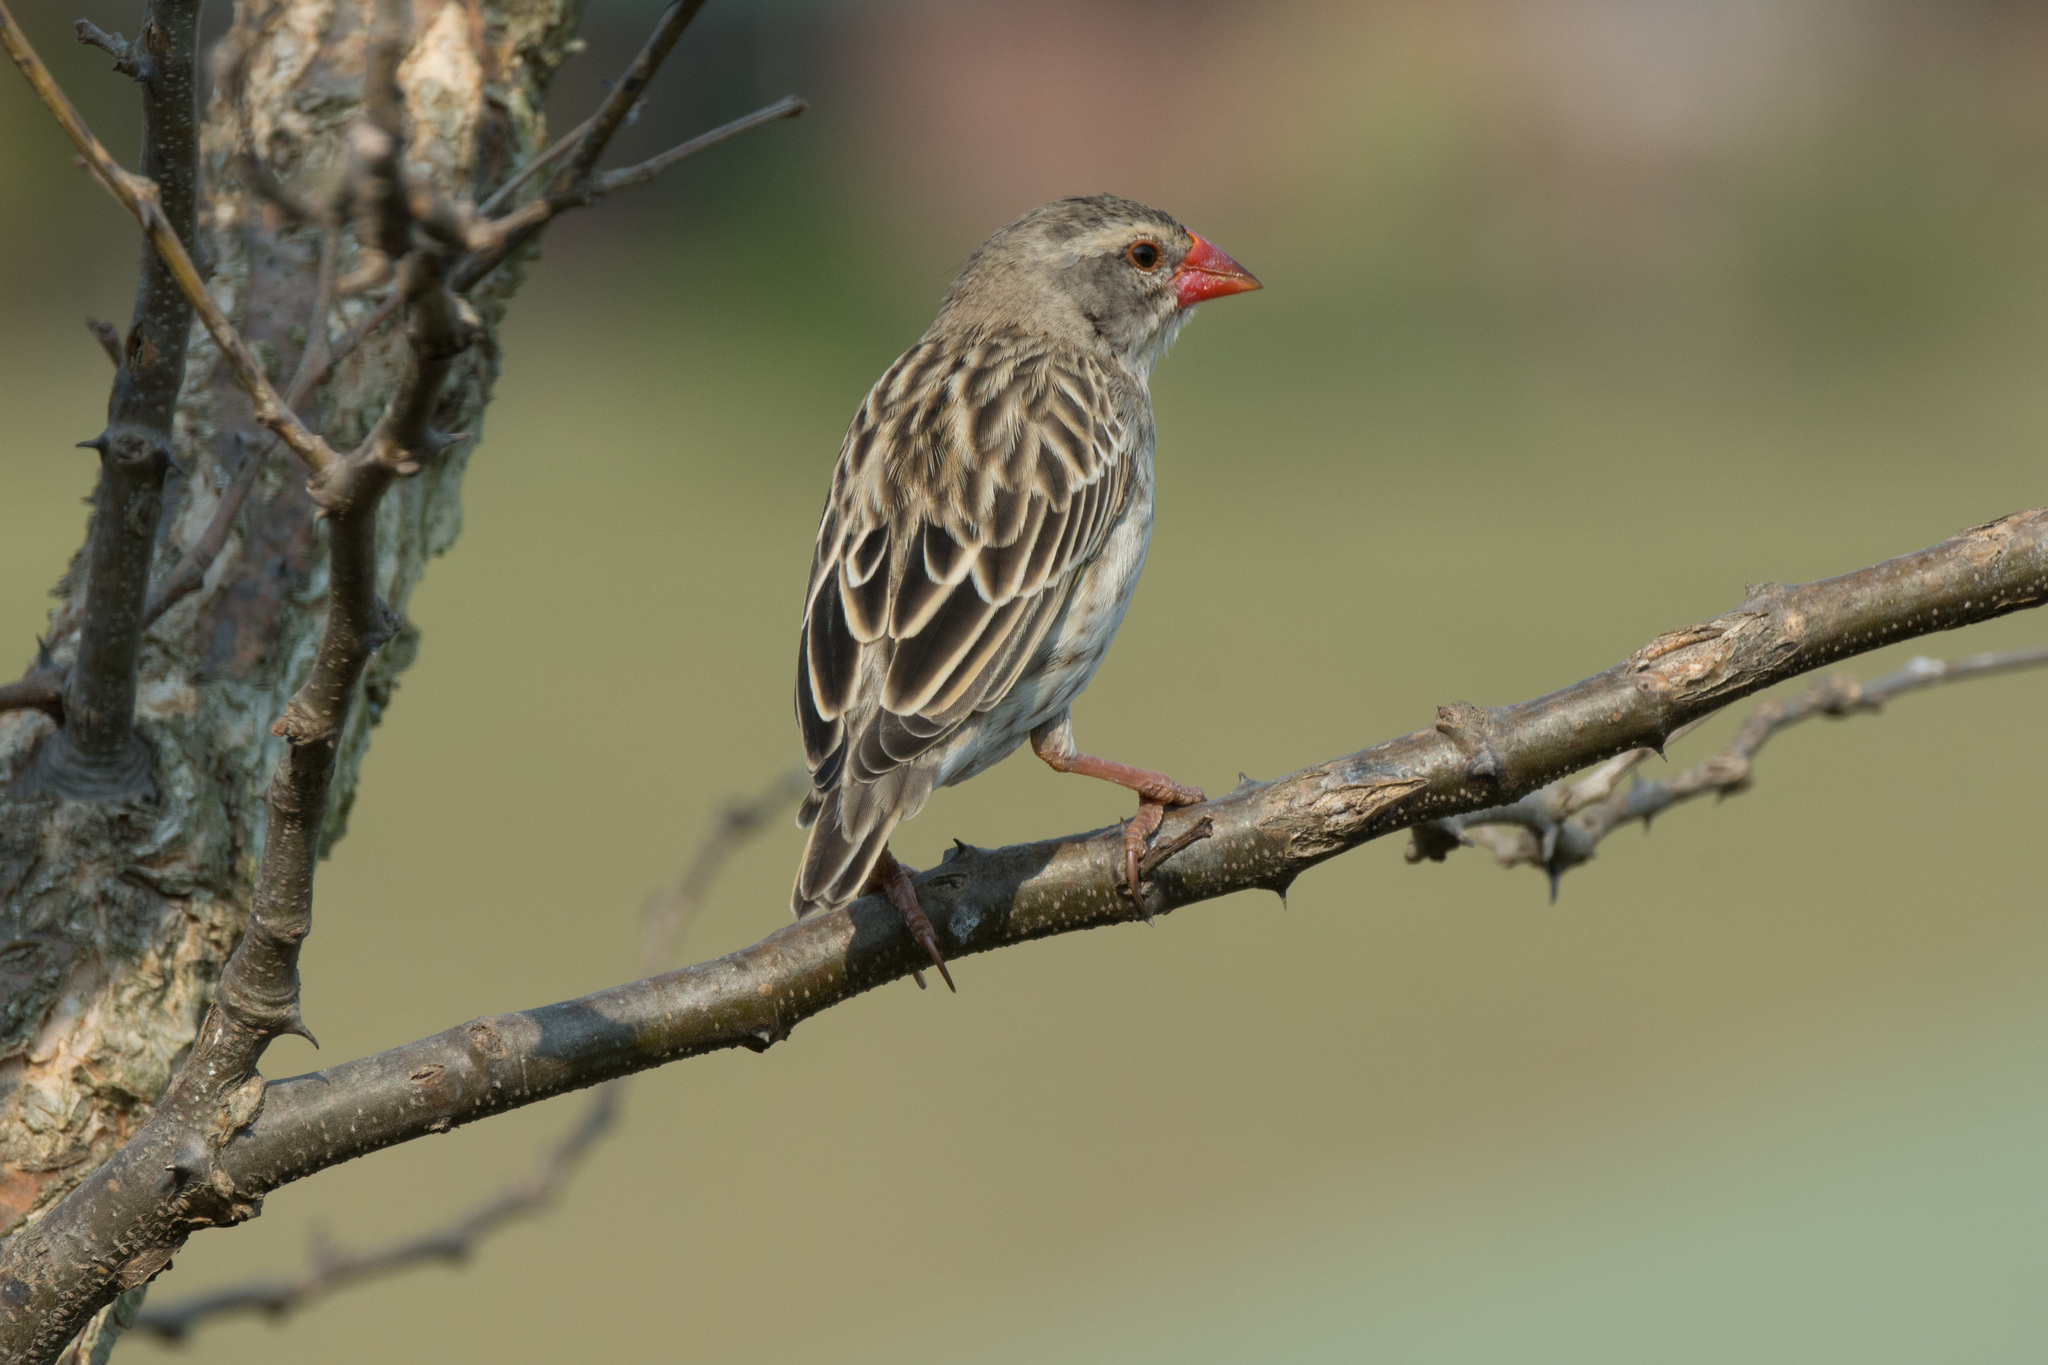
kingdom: Animalia
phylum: Chordata
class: Aves
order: Passeriformes
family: Ploceidae
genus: Quelea
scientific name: Quelea quelea
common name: Red-billed quelea
